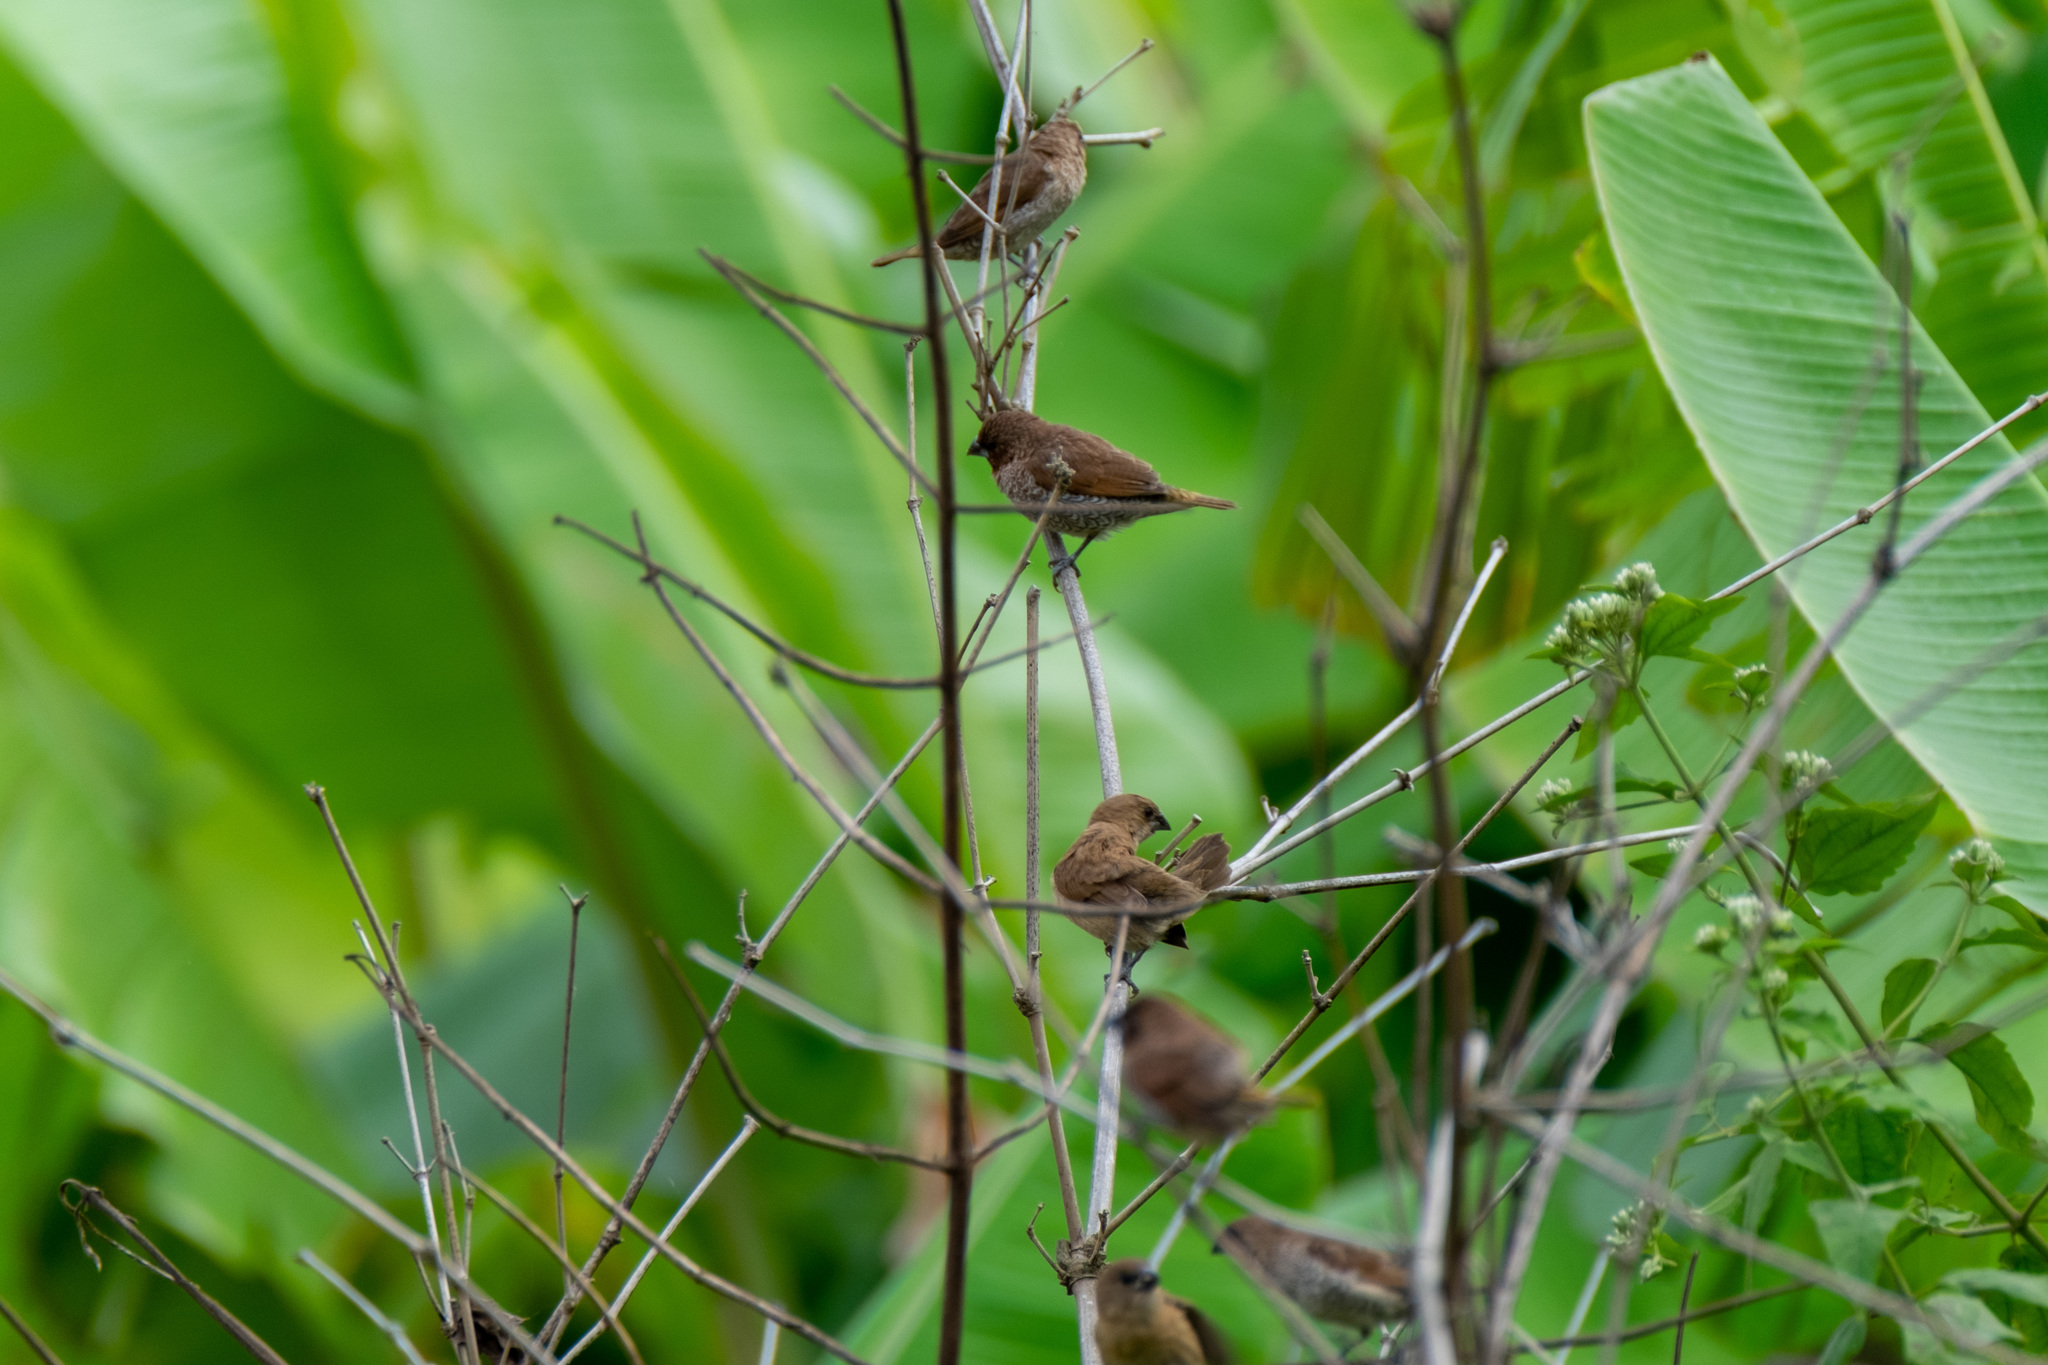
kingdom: Animalia
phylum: Chordata
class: Aves
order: Passeriformes
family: Estrildidae
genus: Lonchura
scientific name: Lonchura punctulata
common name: Scaly-breasted munia
